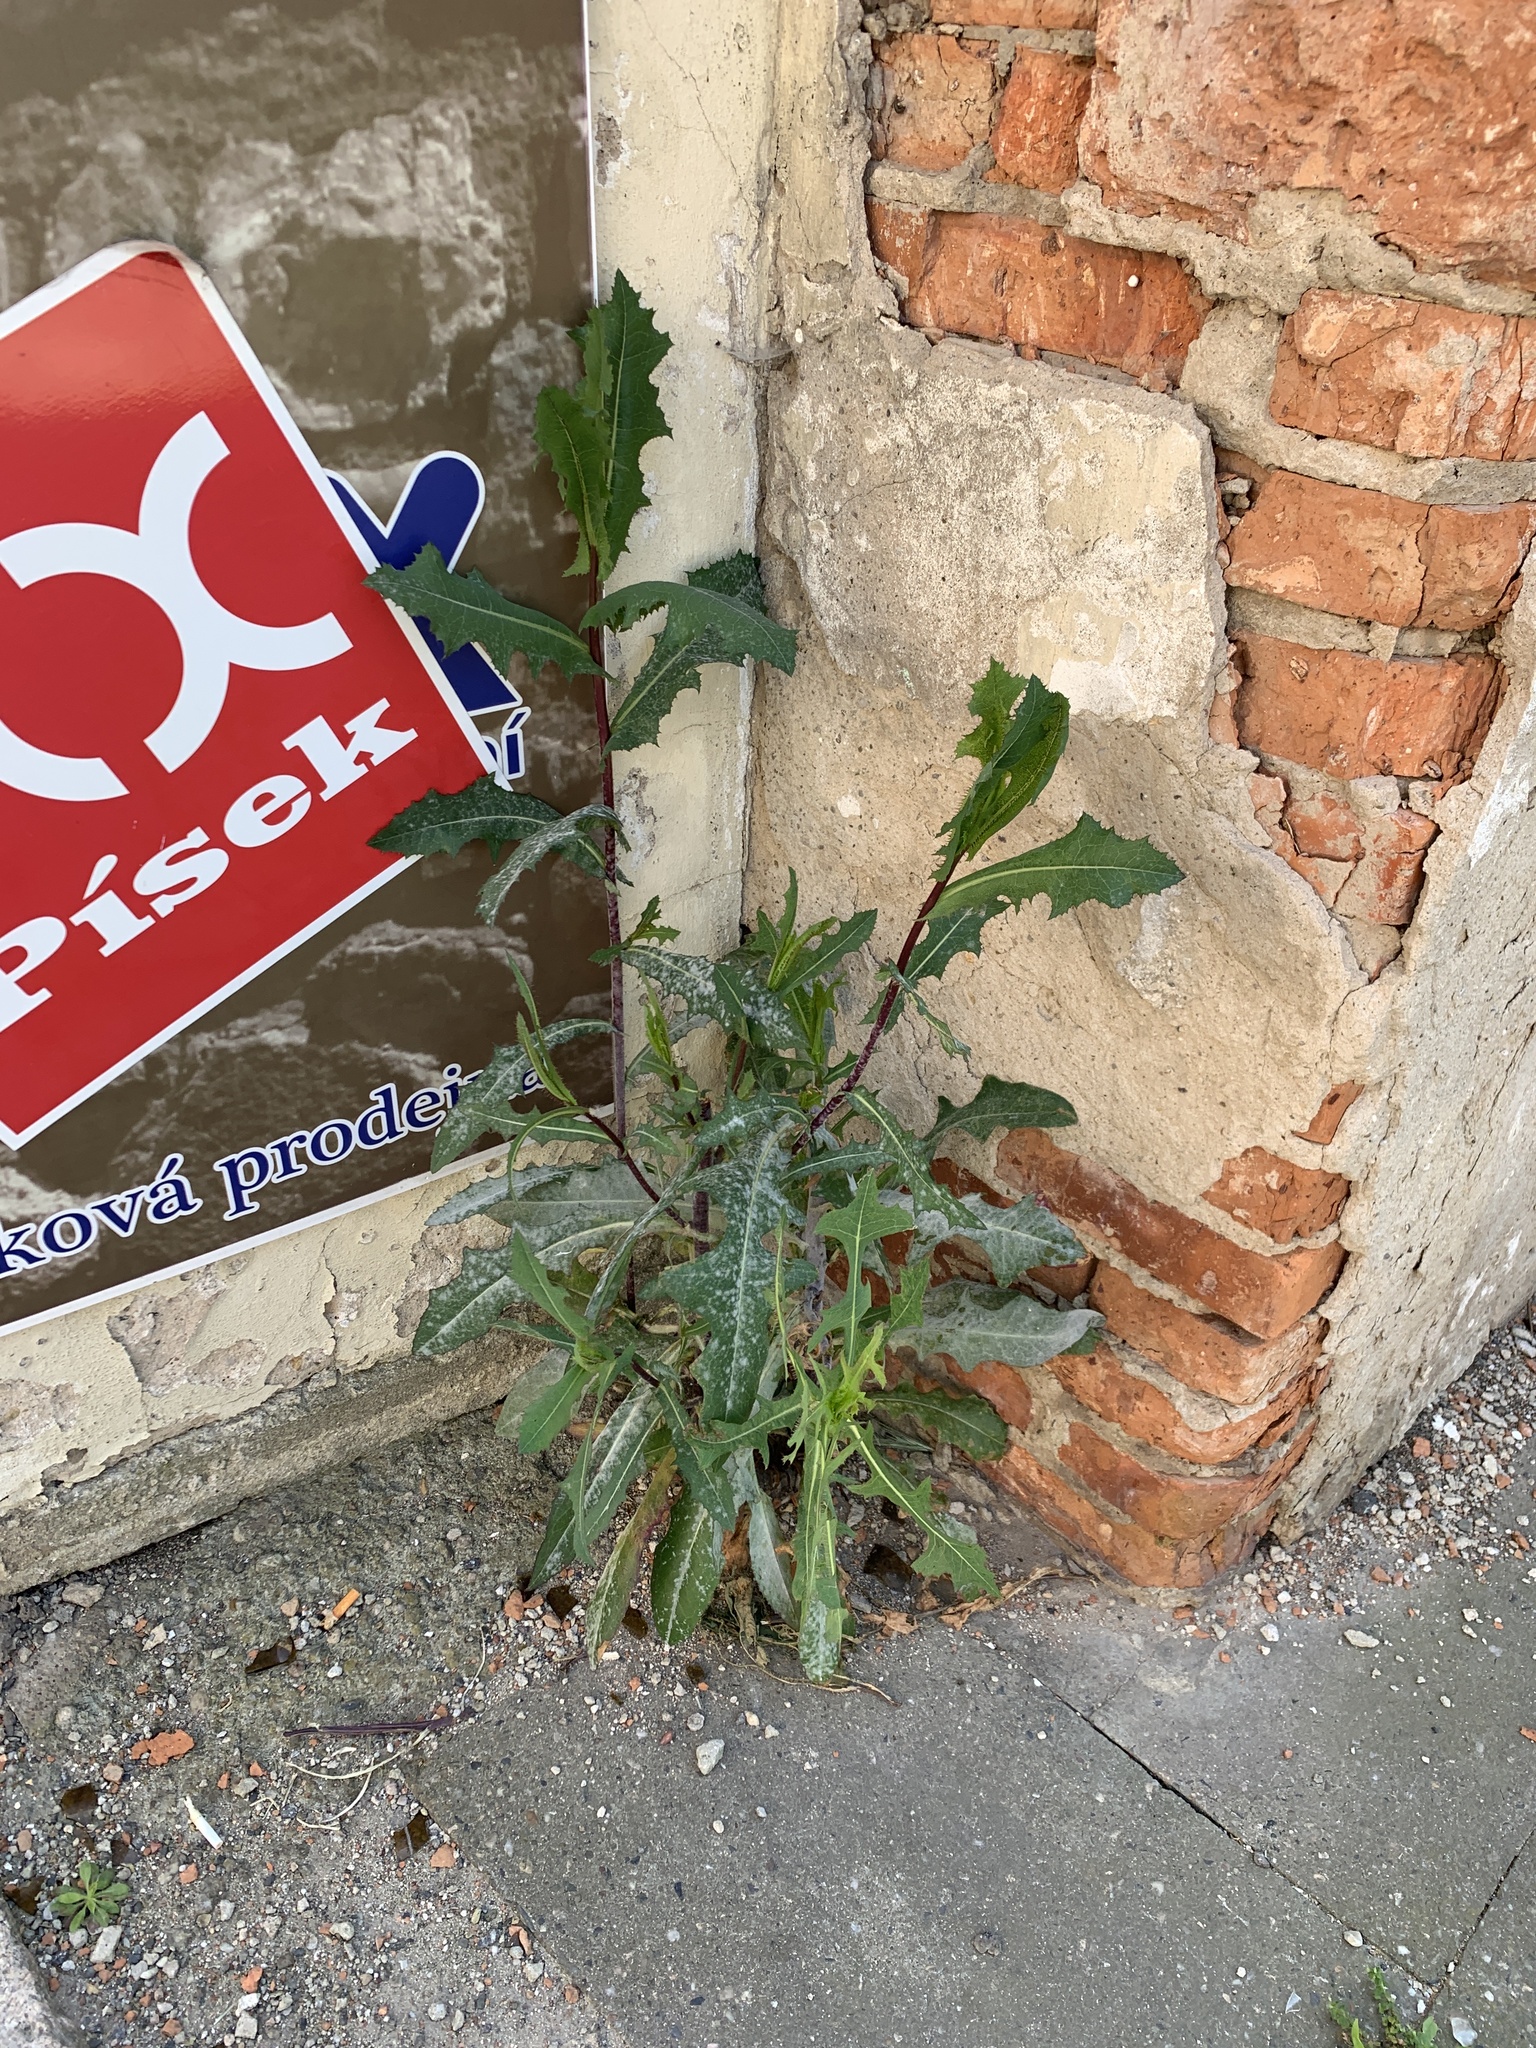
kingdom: Plantae
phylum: Tracheophyta
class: Magnoliopsida
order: Asterales
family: Asteraceae
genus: Lactuca
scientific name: Lactuca serriola
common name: Prickly lettuce
